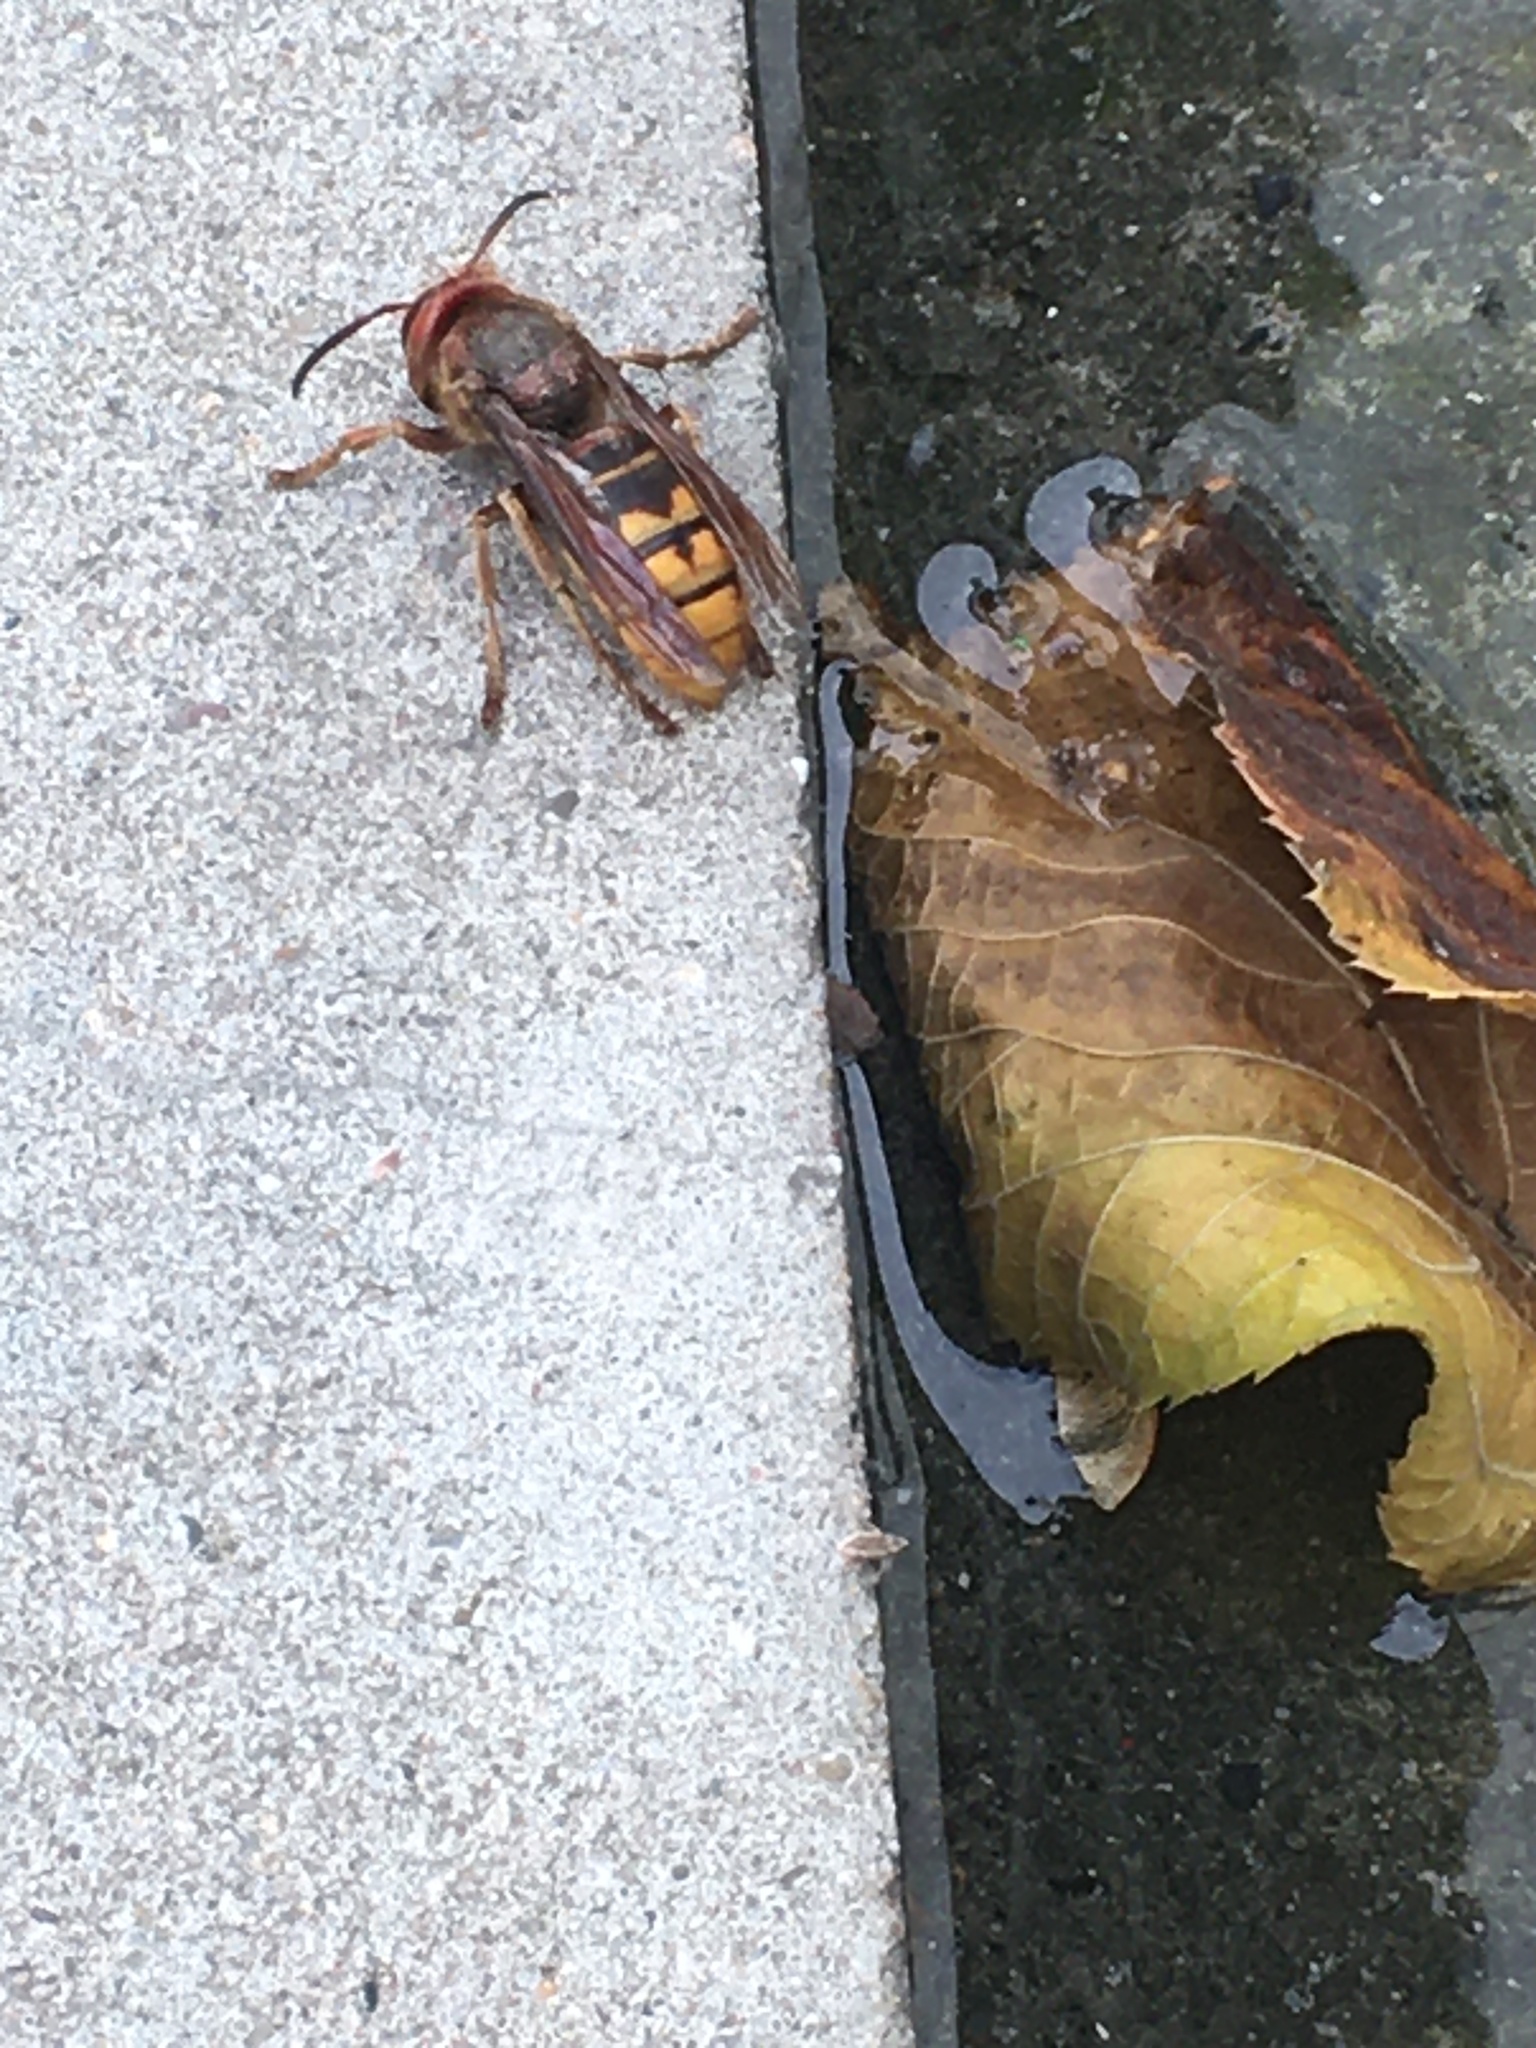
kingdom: Animalia
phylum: Arthropoda
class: Insecta
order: Hymenoptera
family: Vespidae
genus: Vespa
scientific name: Vespa crabro
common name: Hornet
